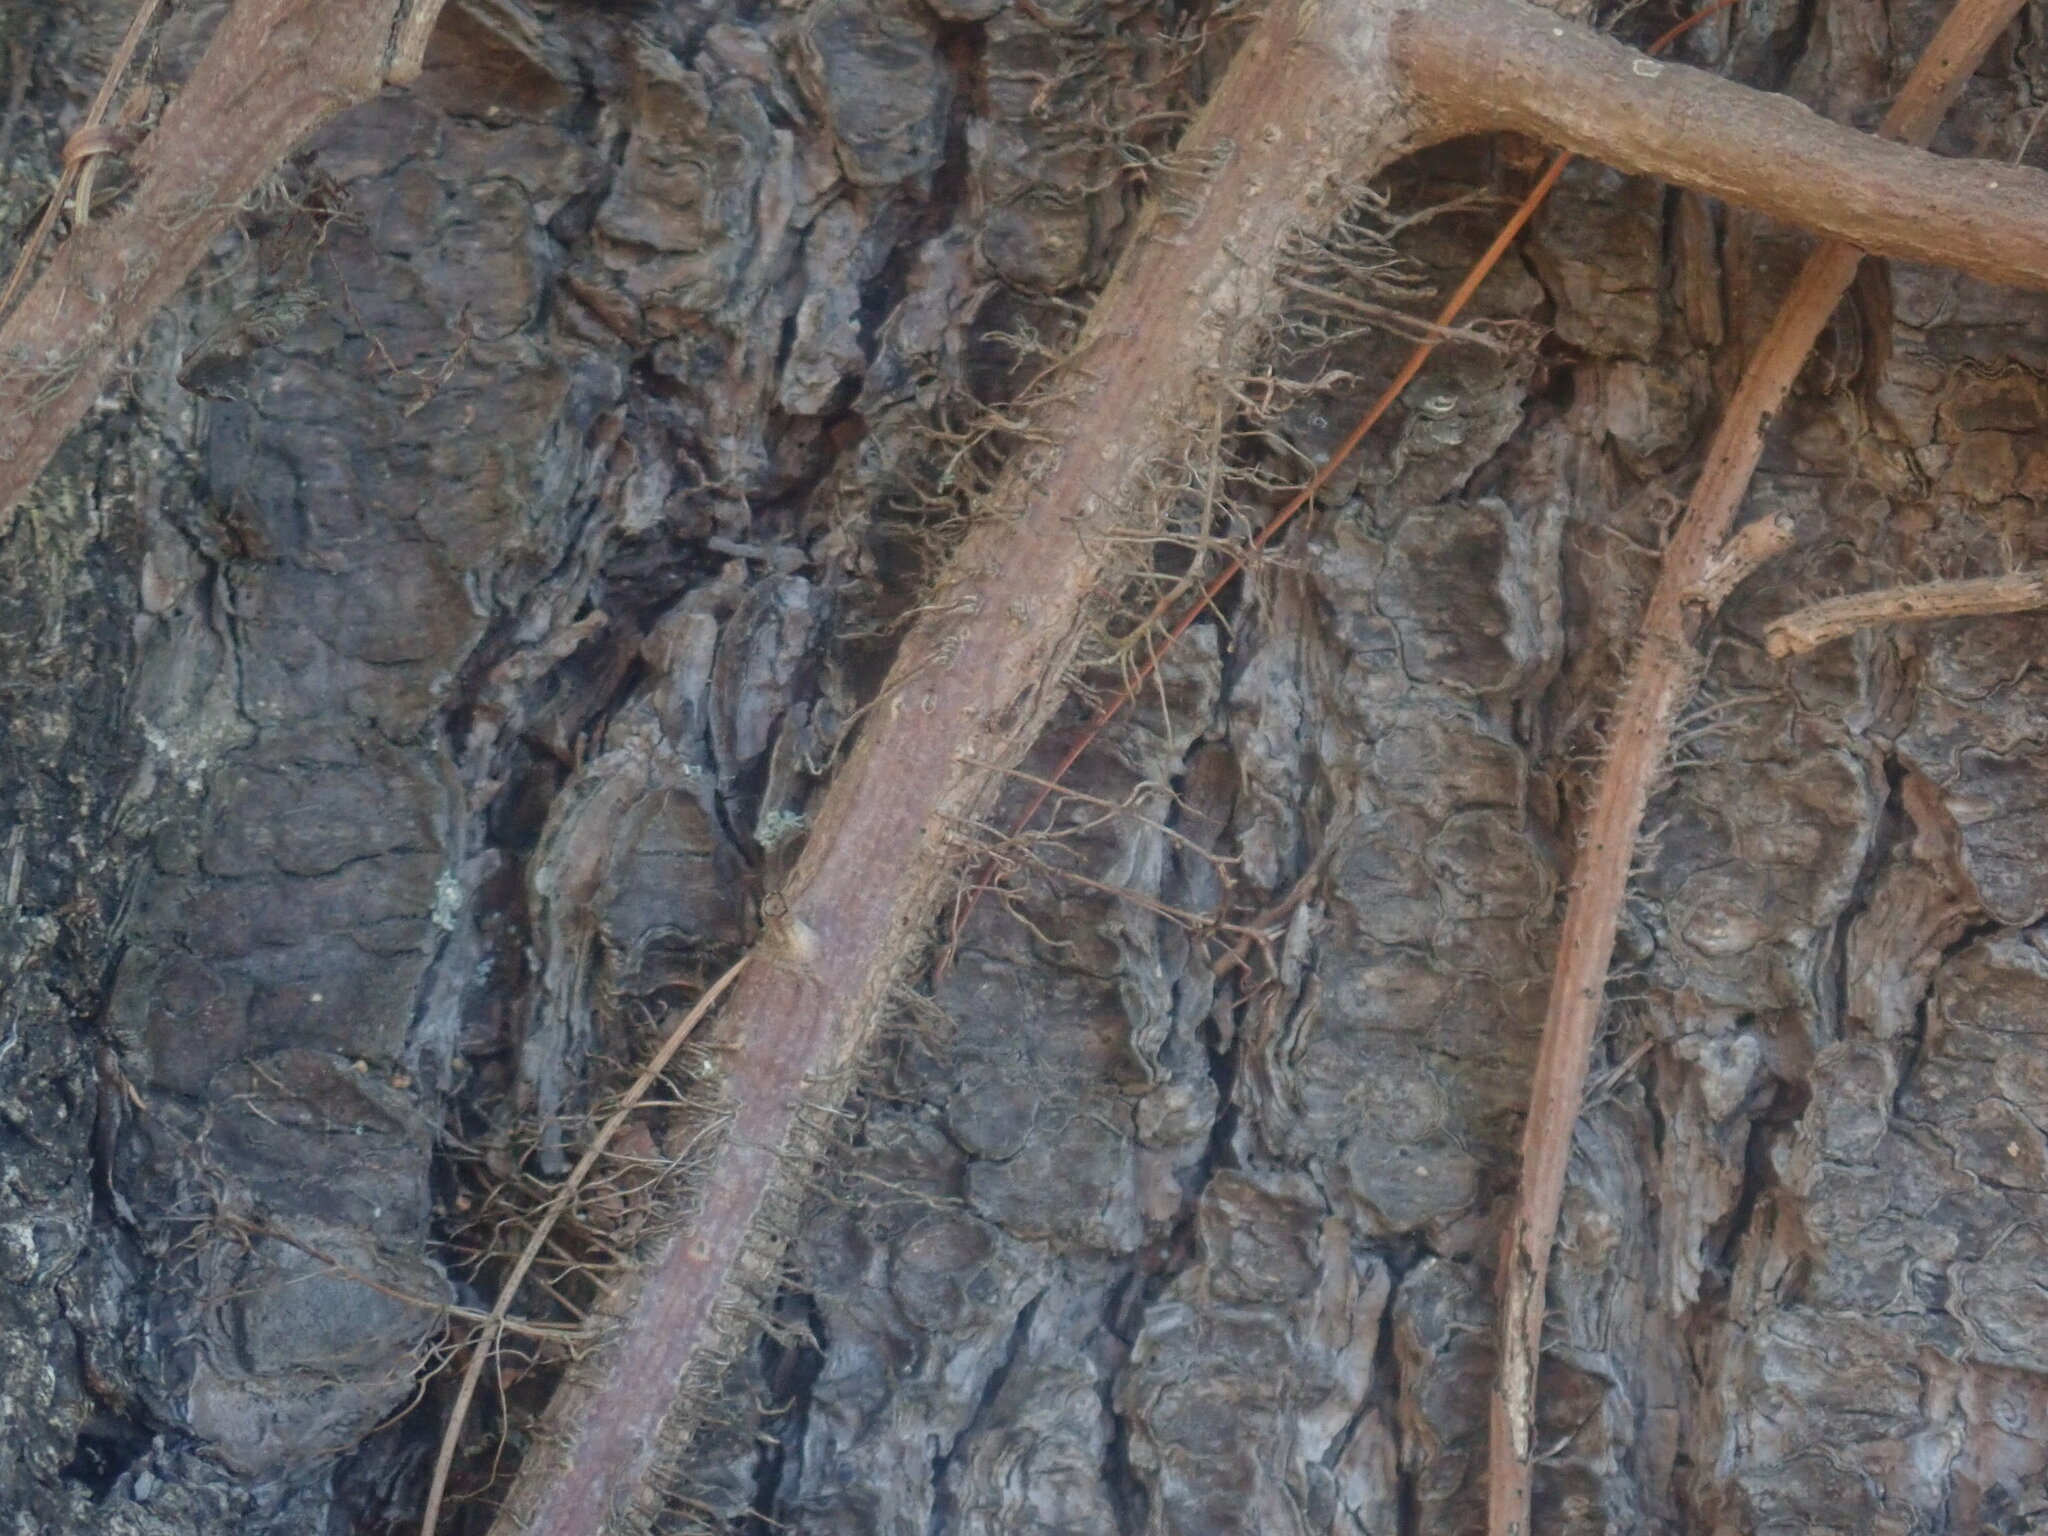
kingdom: Plantae
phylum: Tracheophyta
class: Magnoliopsida
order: Sapindales
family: Anacardiaceae
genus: Toxicodendron
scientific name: Toxicodendron radicans
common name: Poison ivy
